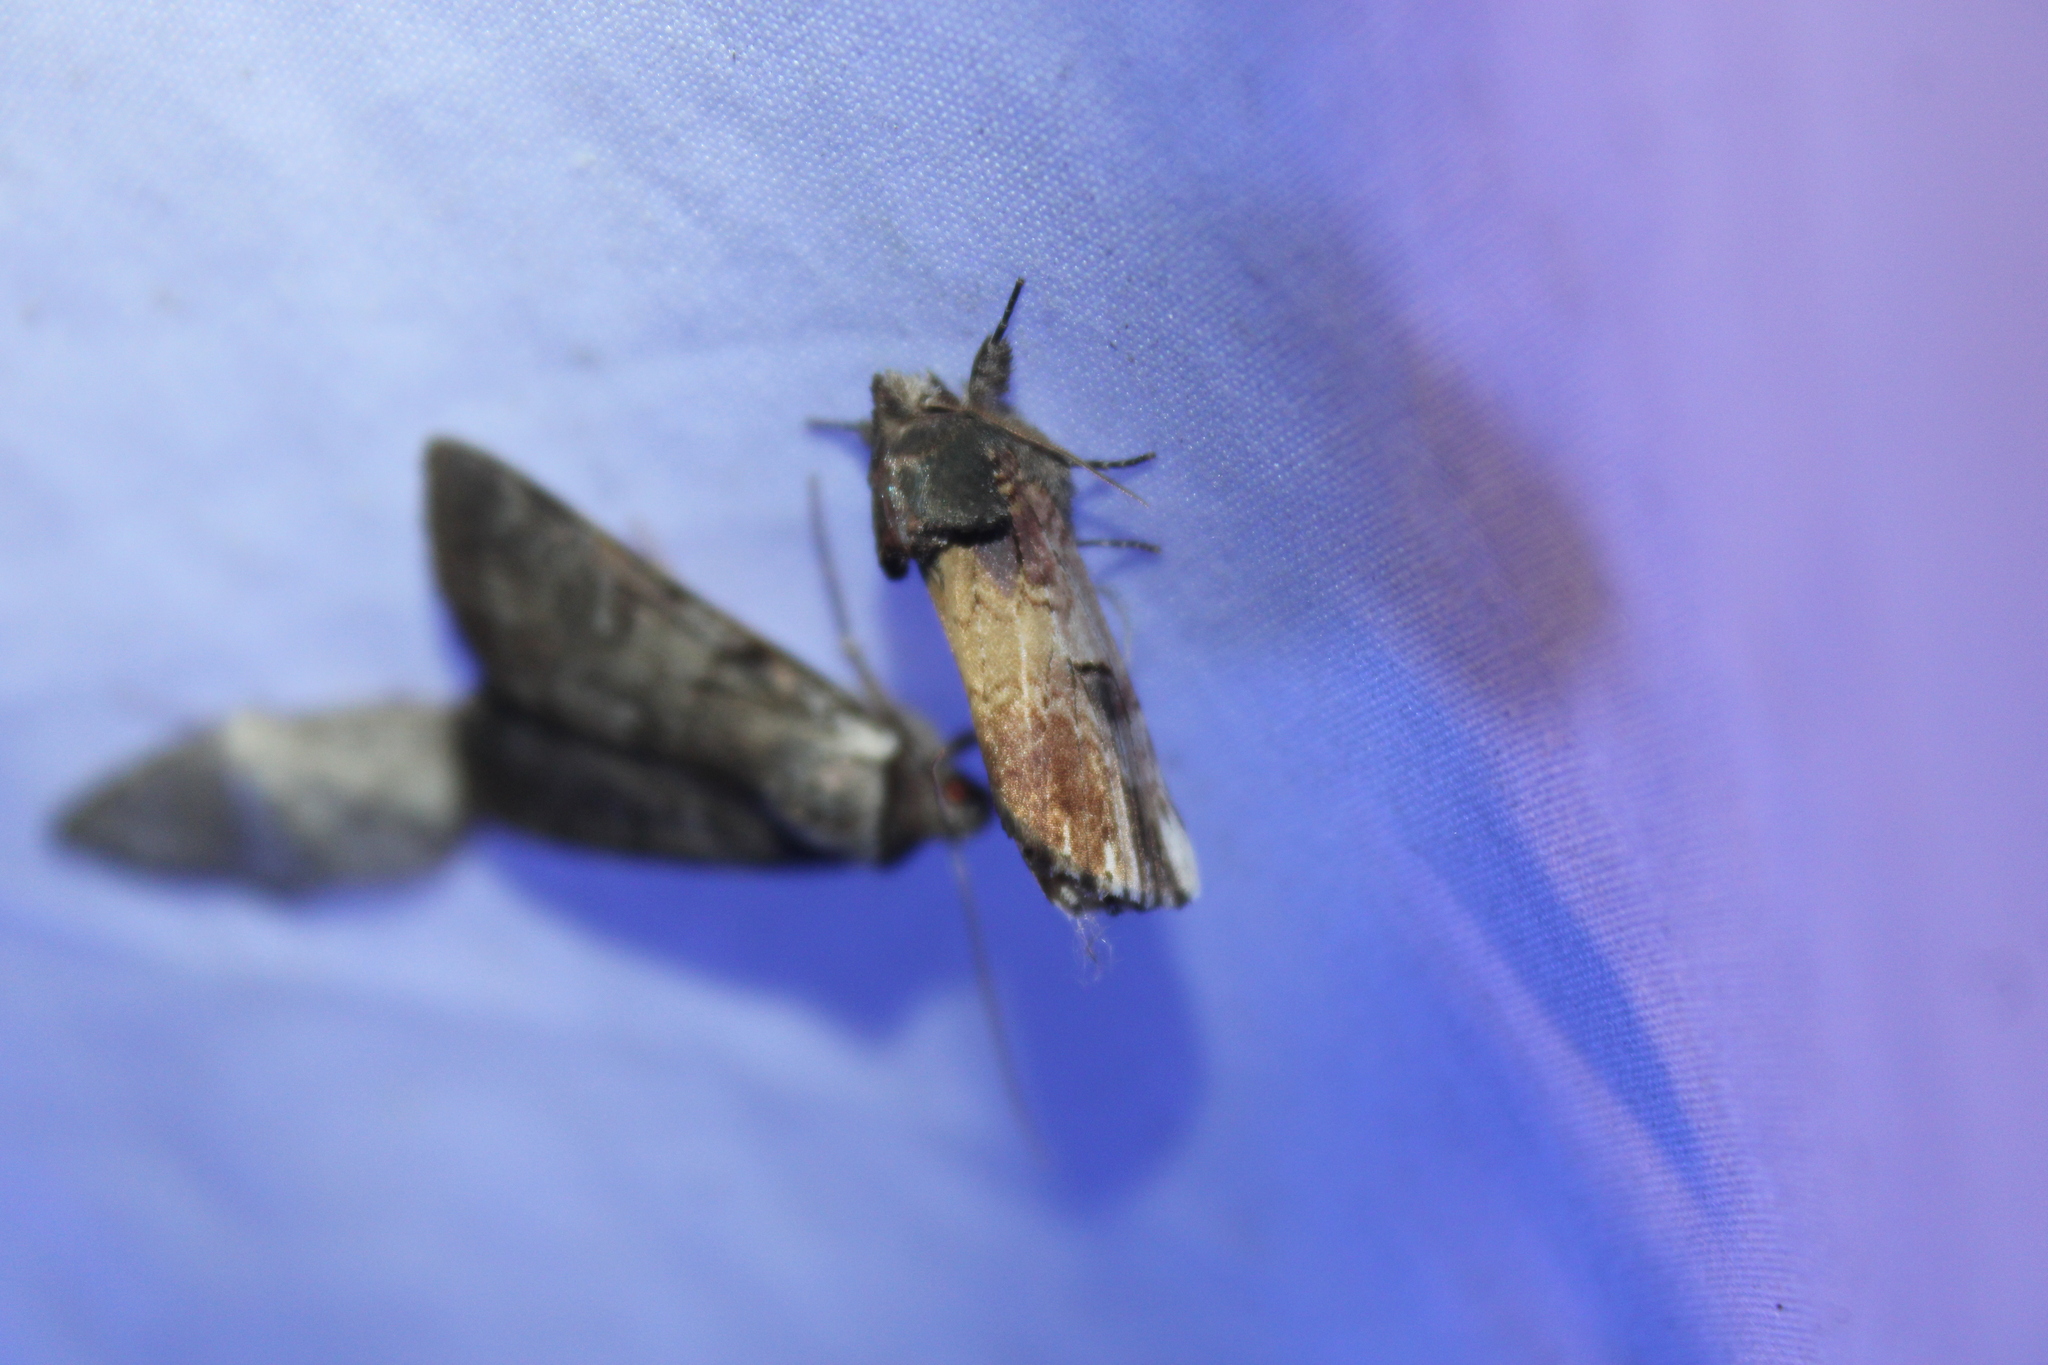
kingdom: Animalia
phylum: Arthropoda
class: Insecta
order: Lepidoptera
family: Notodontidae
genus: Schizura
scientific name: Schizura badia
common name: Chestnut schizura
